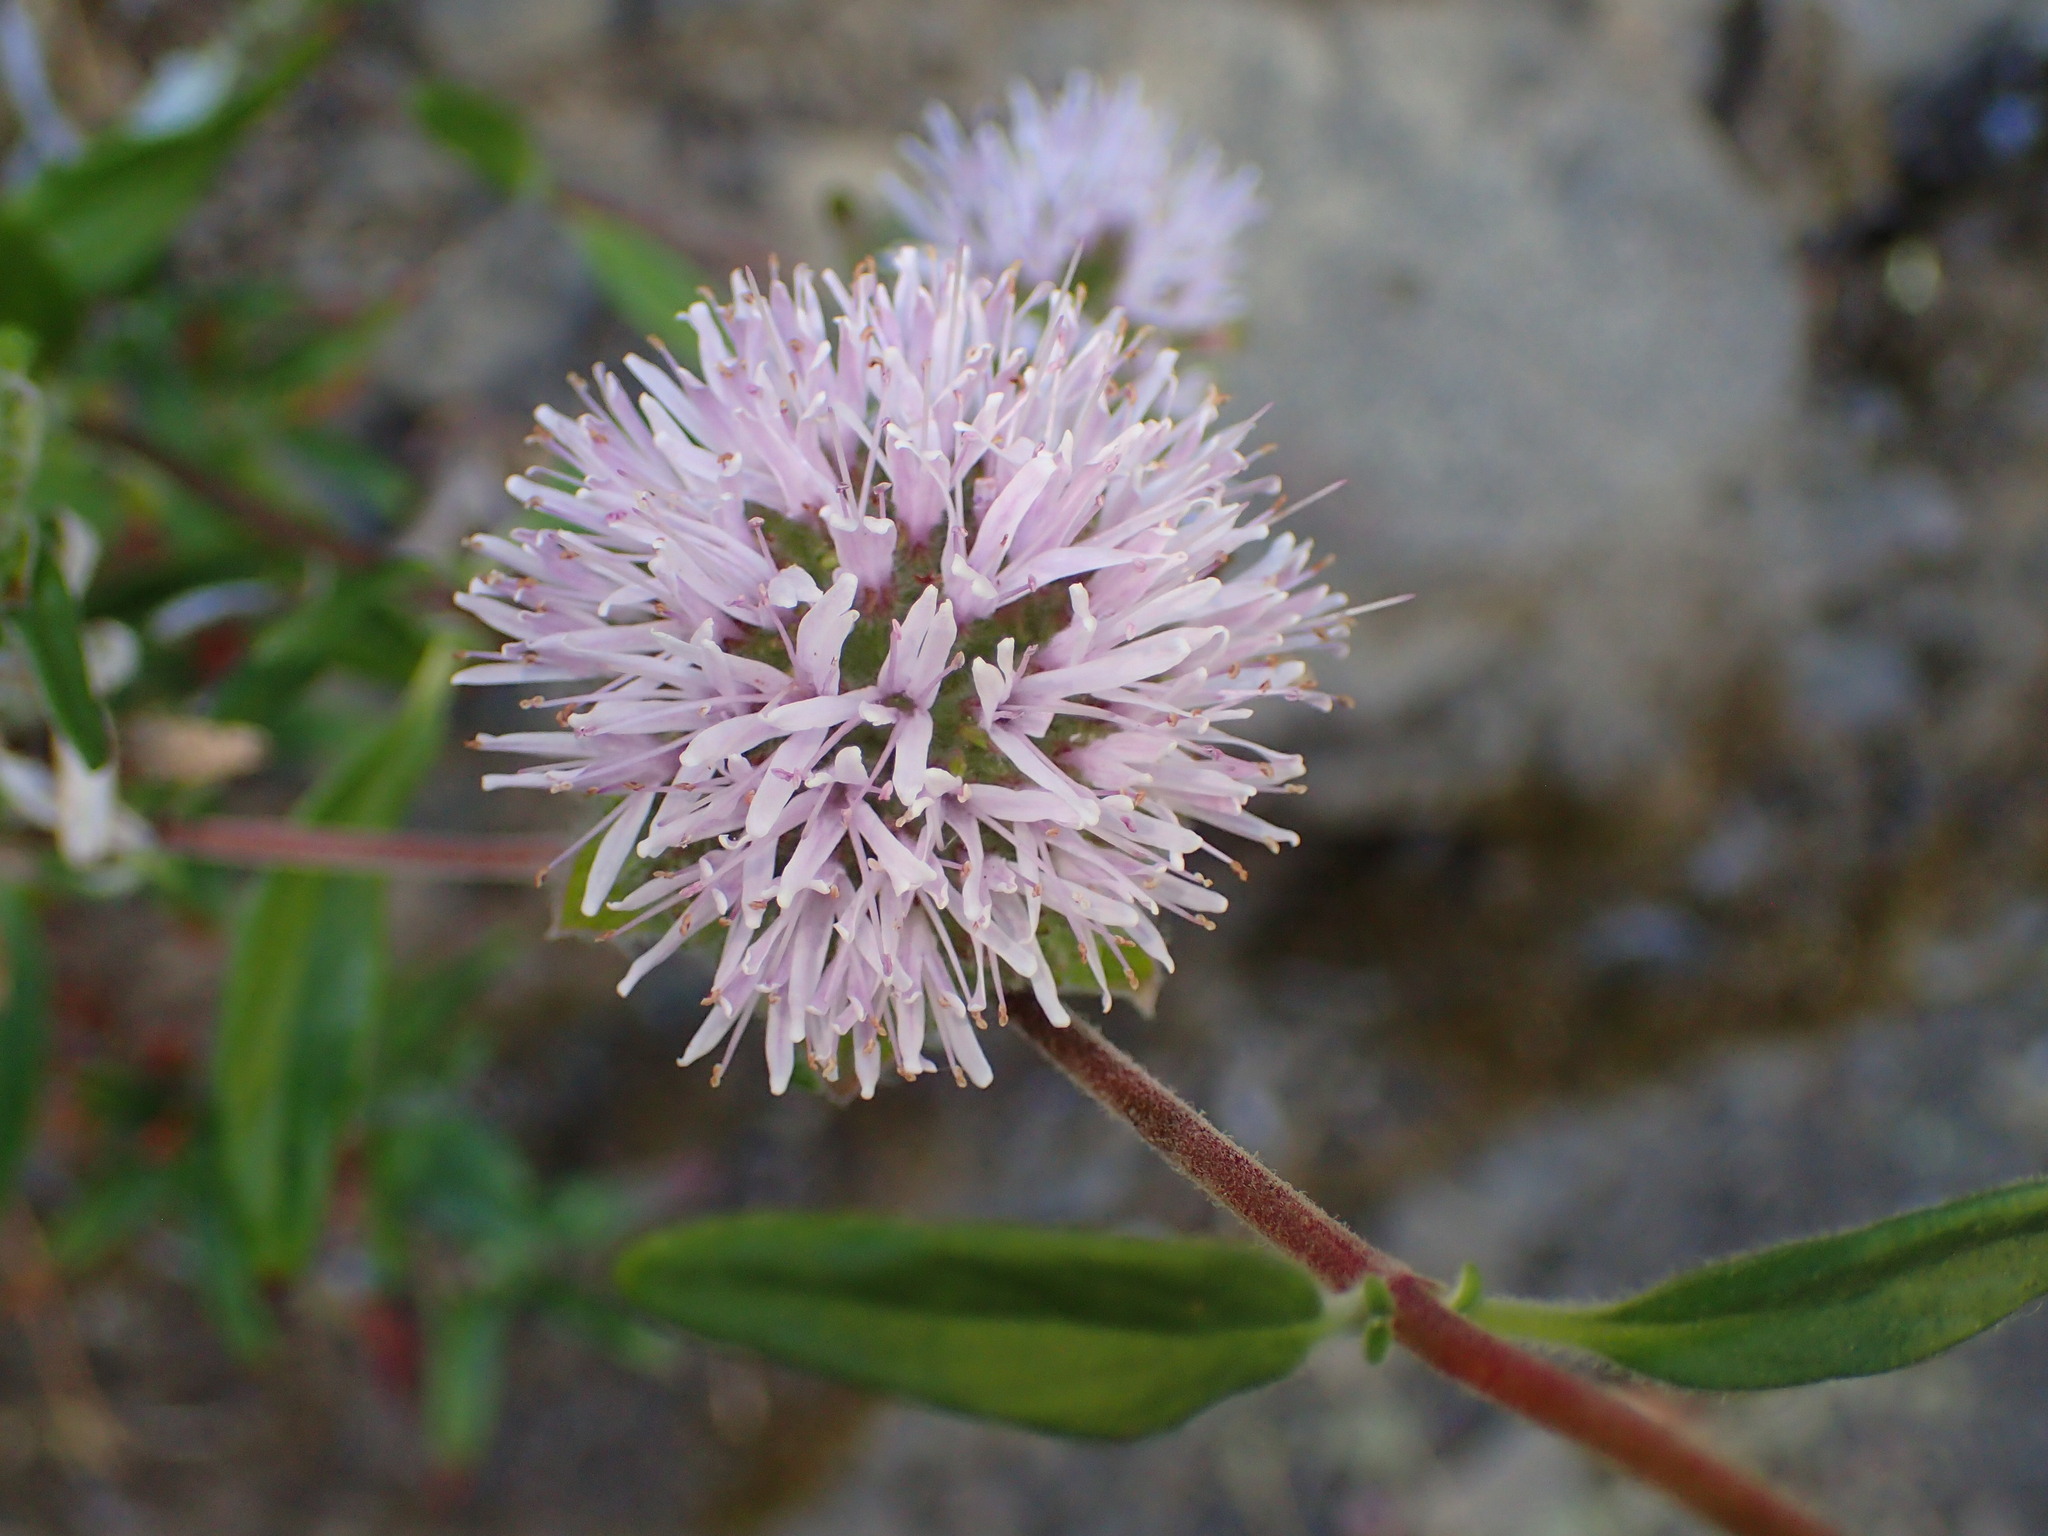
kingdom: Plantae
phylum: Tracheophyta
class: Magnoliopsida
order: Lamiales
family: Lamiaceae
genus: Monardella
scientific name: Monardella hypoleuca
